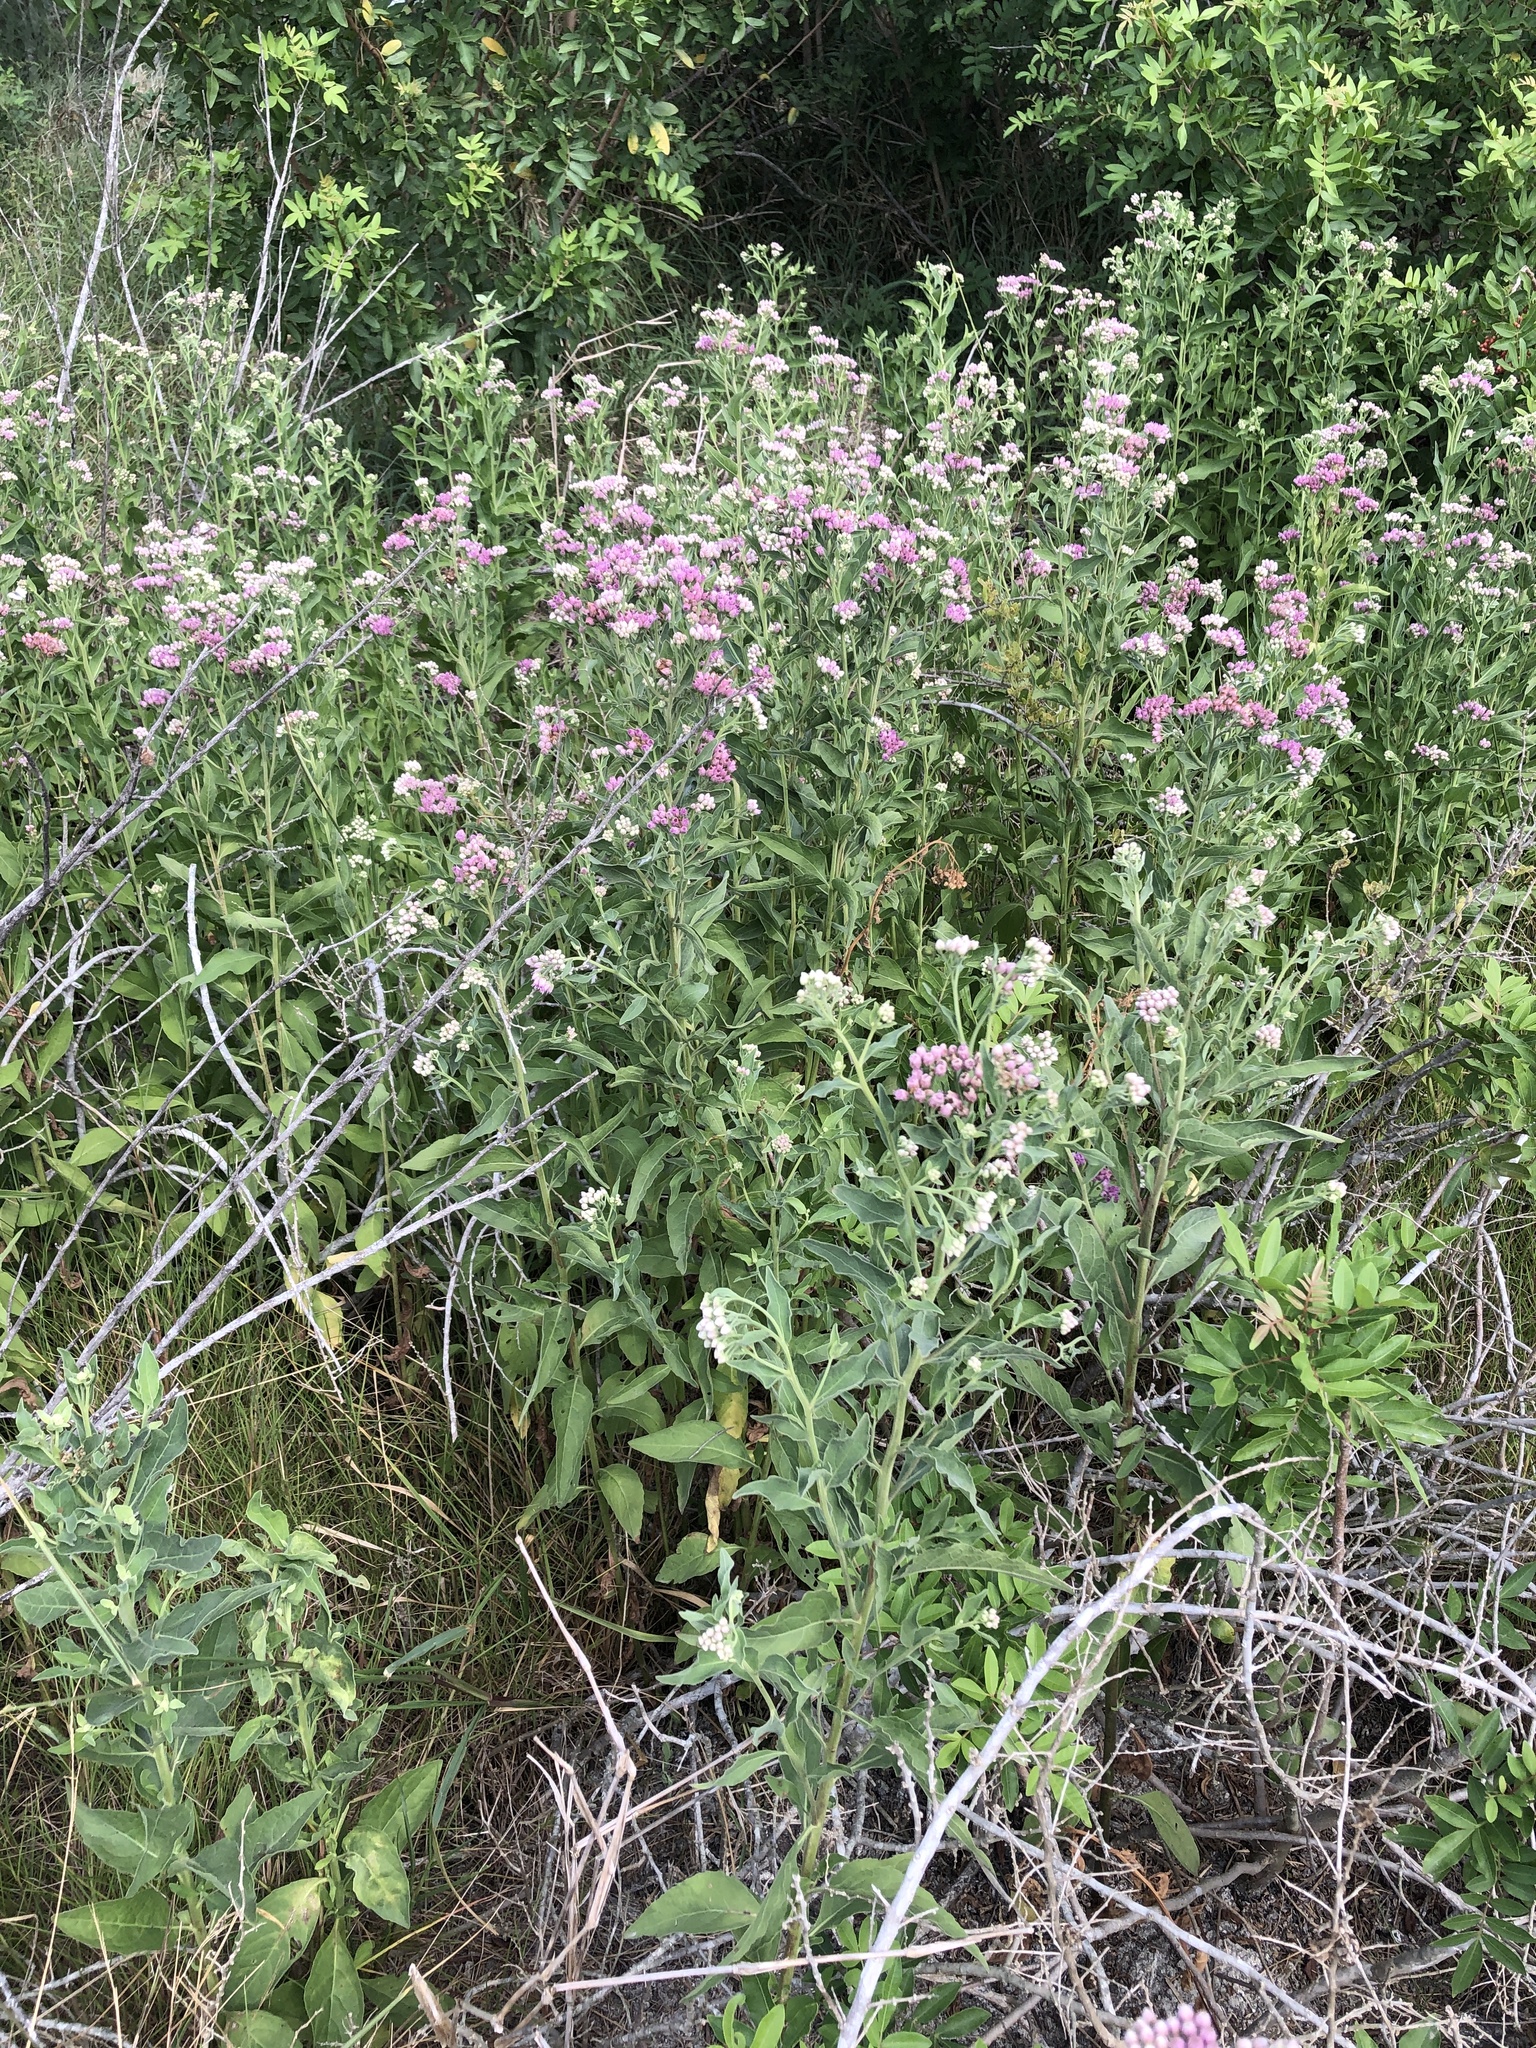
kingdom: Plantae
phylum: Tracheophyta
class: Magnoliopsida
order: Asterales
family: Asteraceae
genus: Pluchea
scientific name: Pluchea odorata
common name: Saltmarsh fleabane
